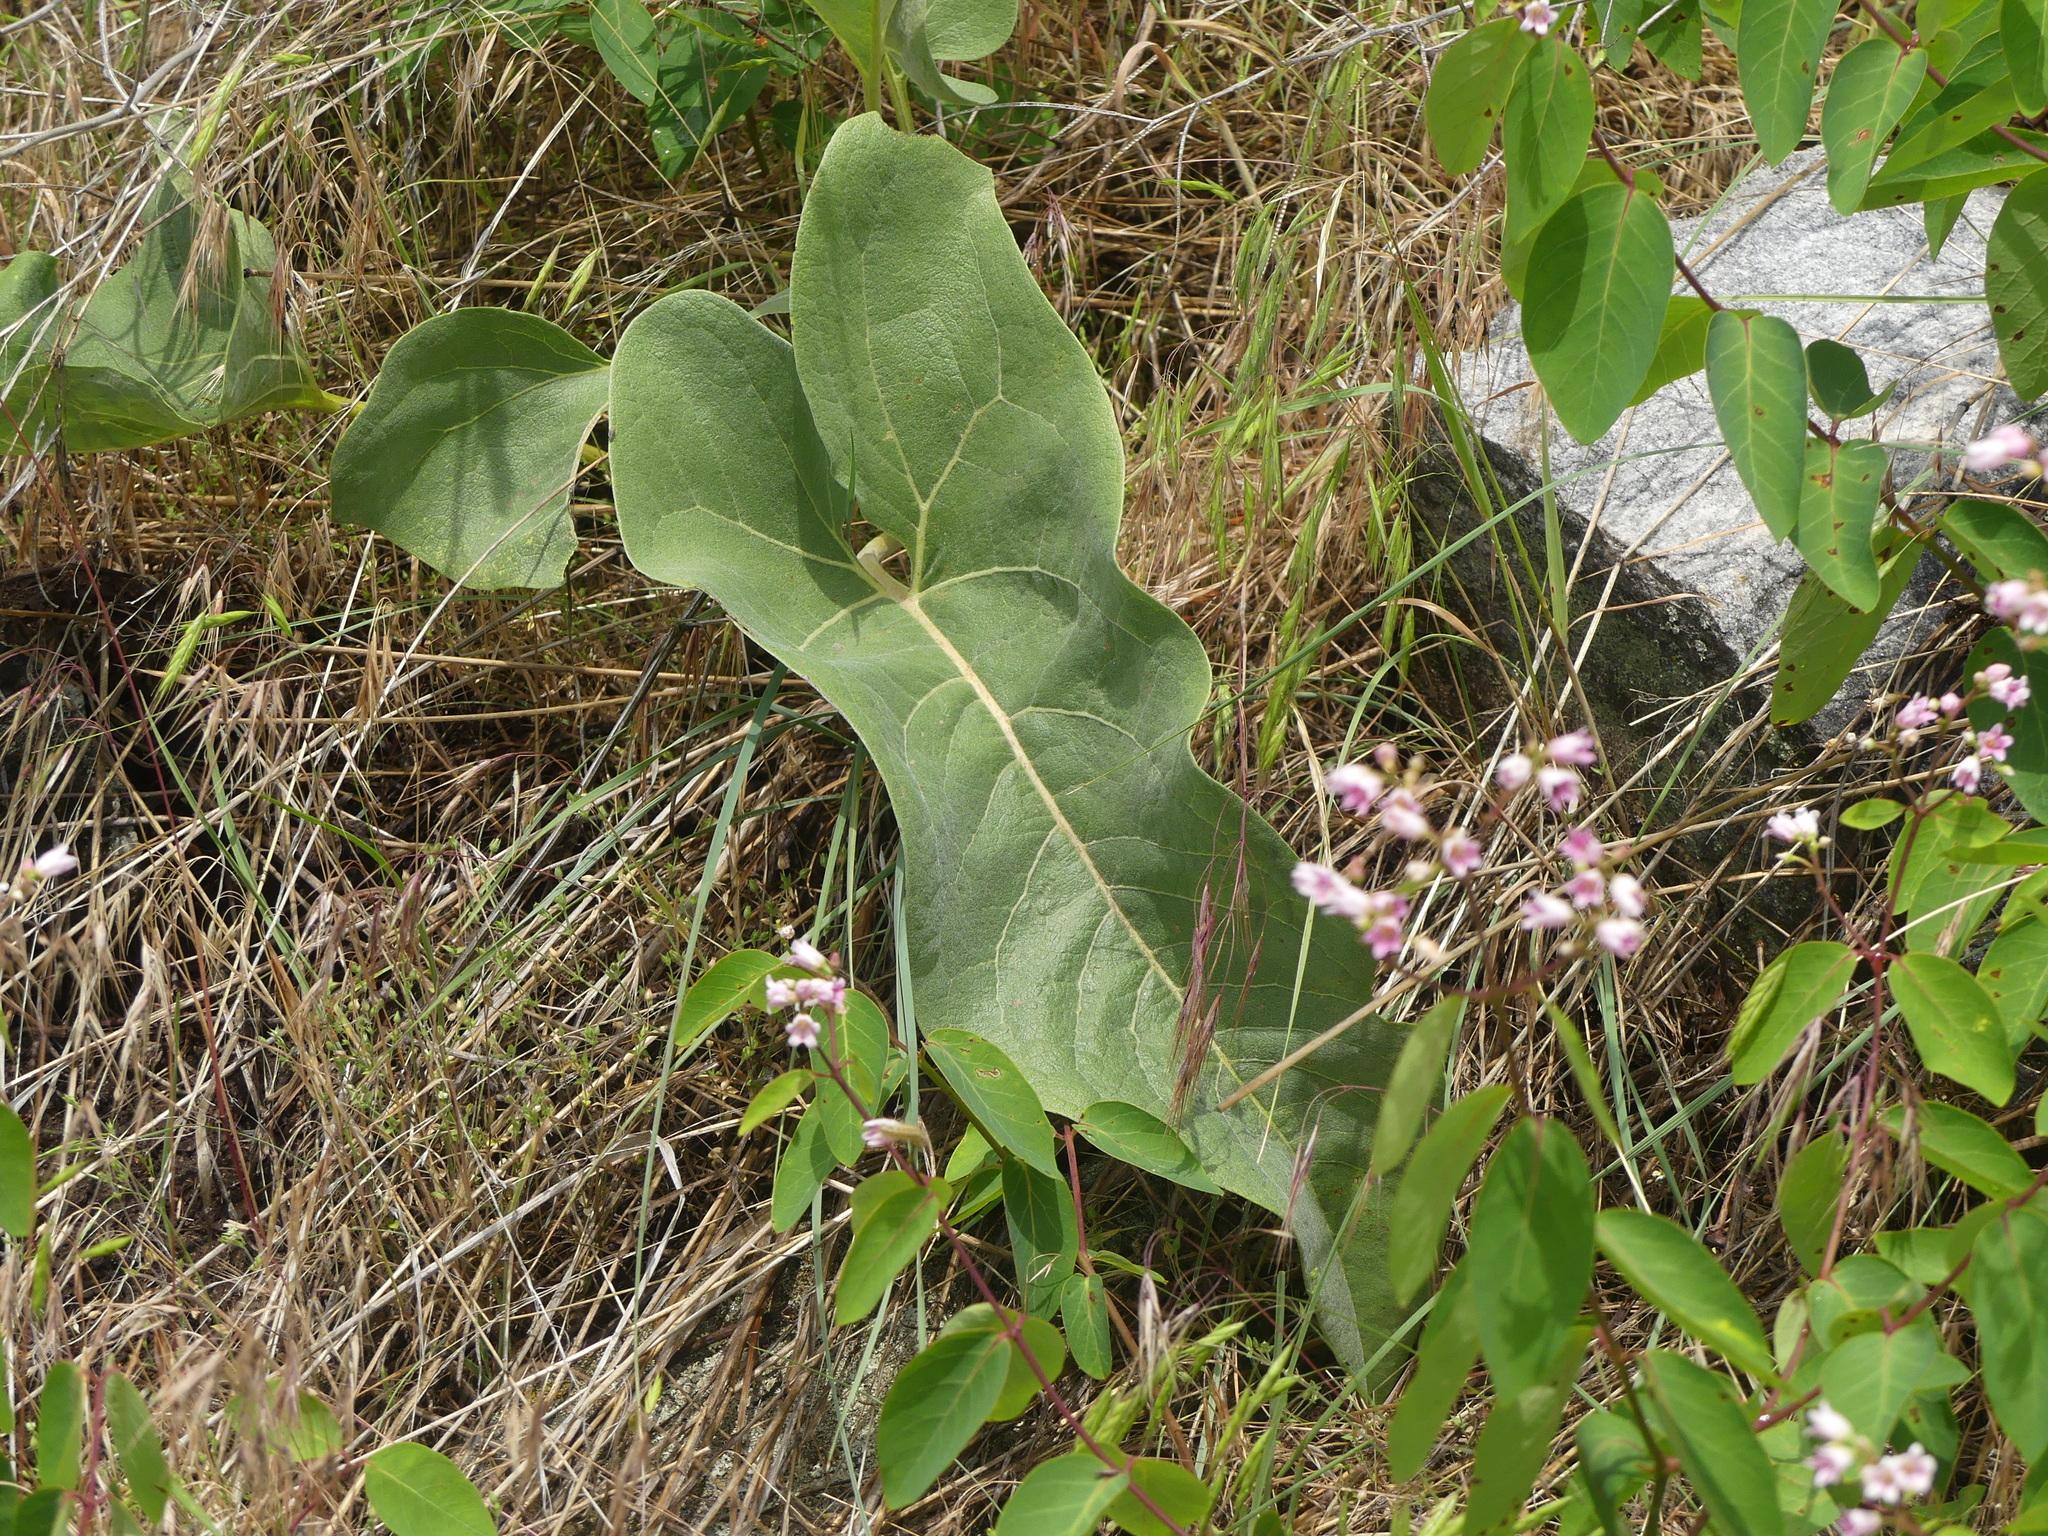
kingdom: Plantae
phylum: Tracheophyta
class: Magnoliopsida
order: Asterales
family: Asteraceae
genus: Wyethia
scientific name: Wyethia sagittata
